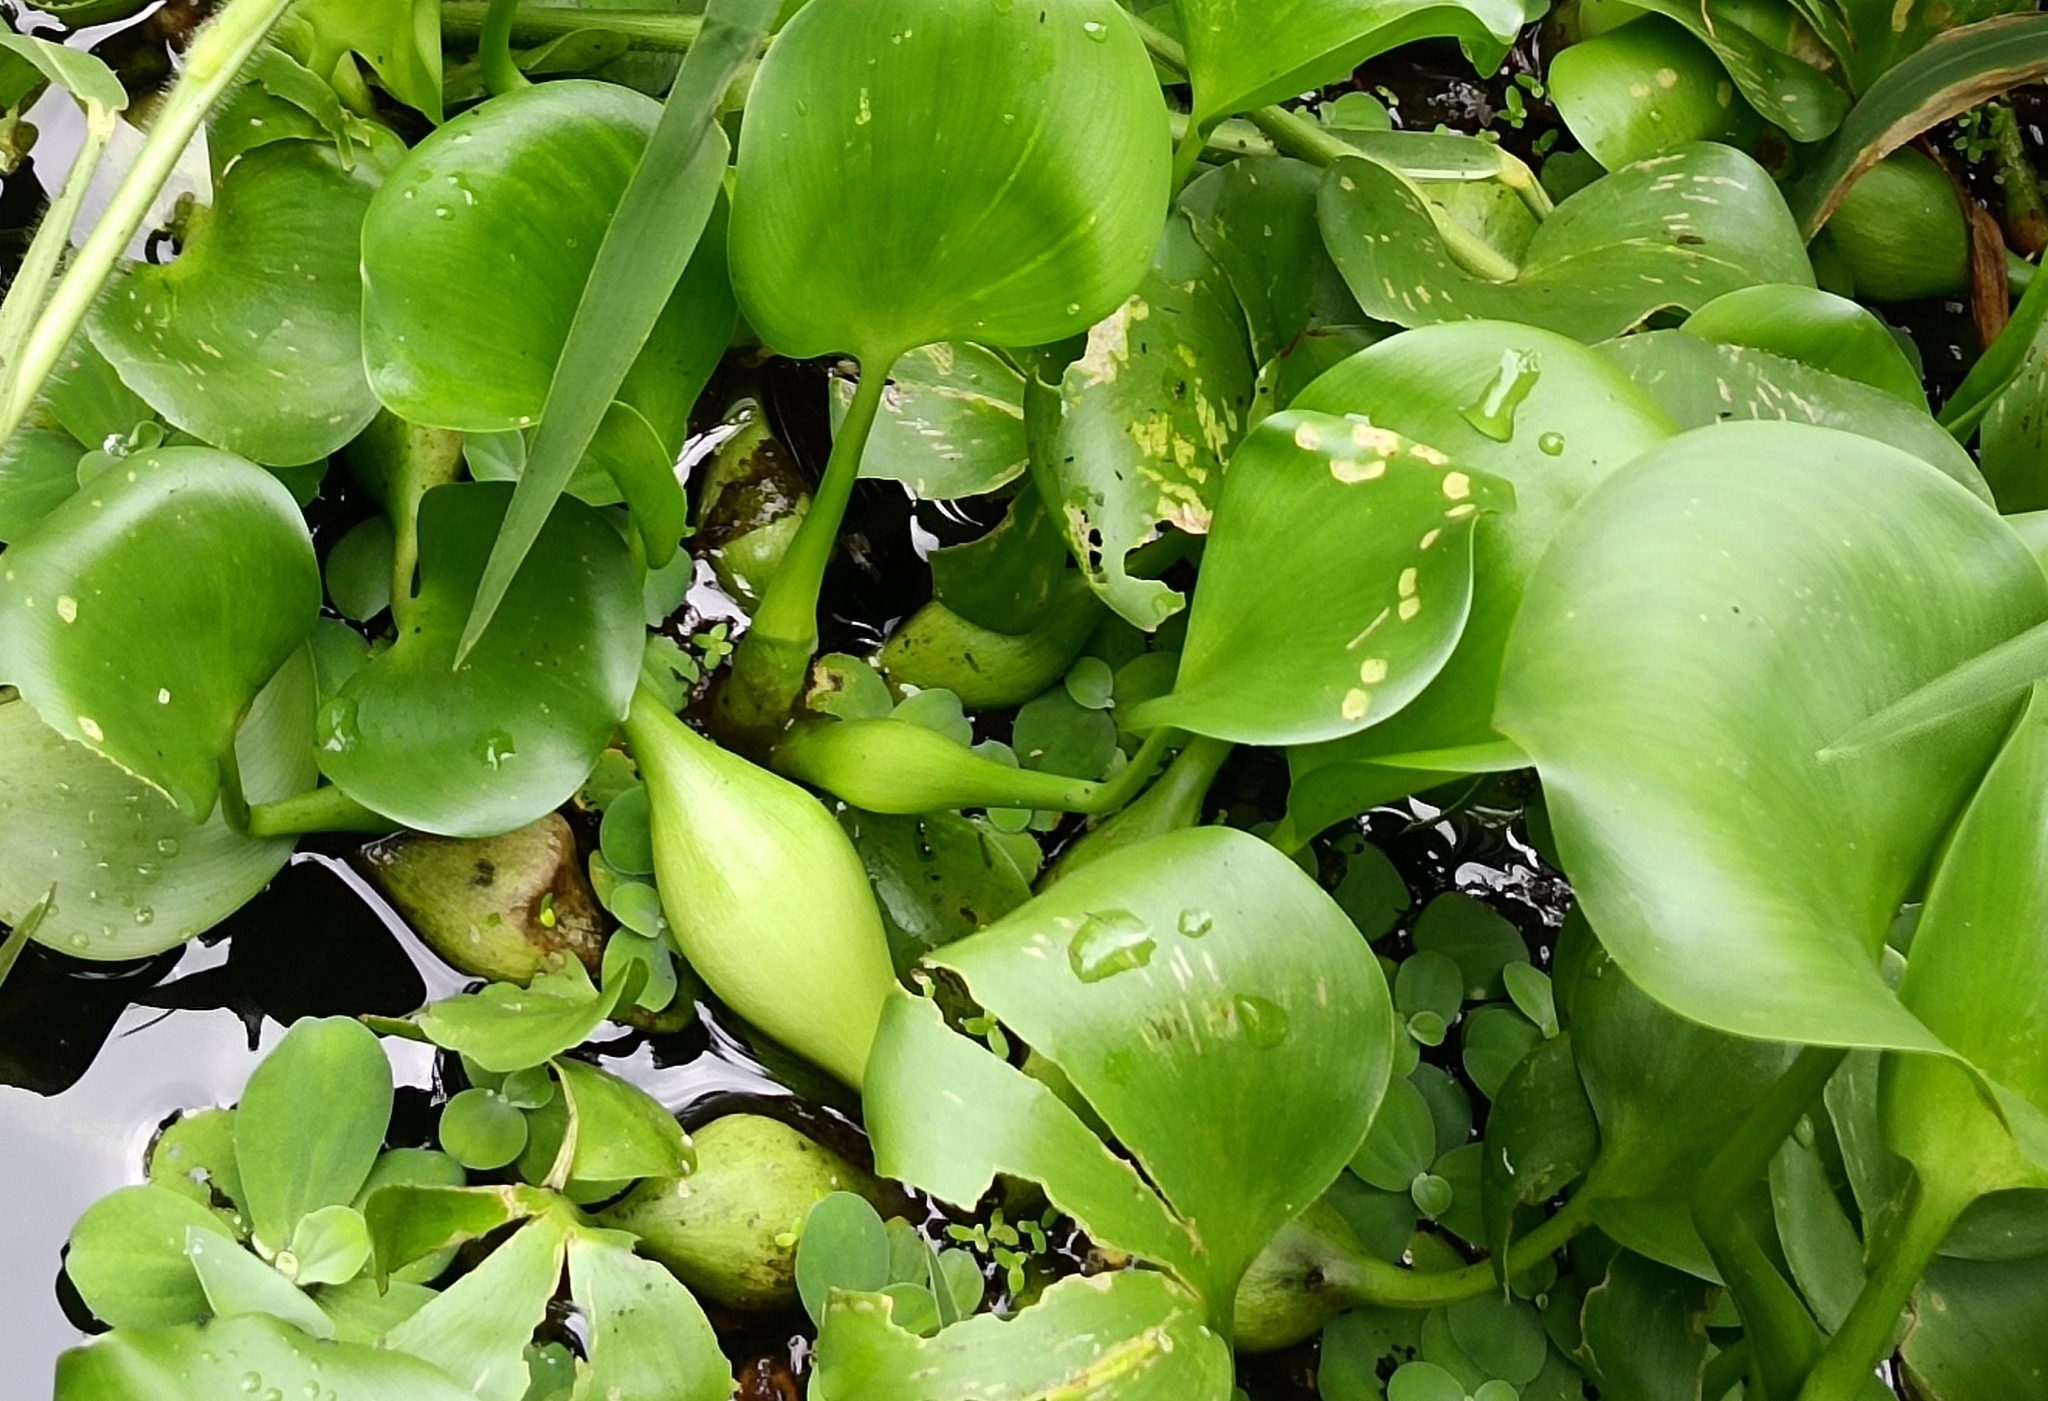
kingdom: Plantae
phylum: Tracheophyta
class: Liliopsida
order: Commelinales
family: Pontederiaceae
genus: Pontederia
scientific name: Pontederia crassipes
